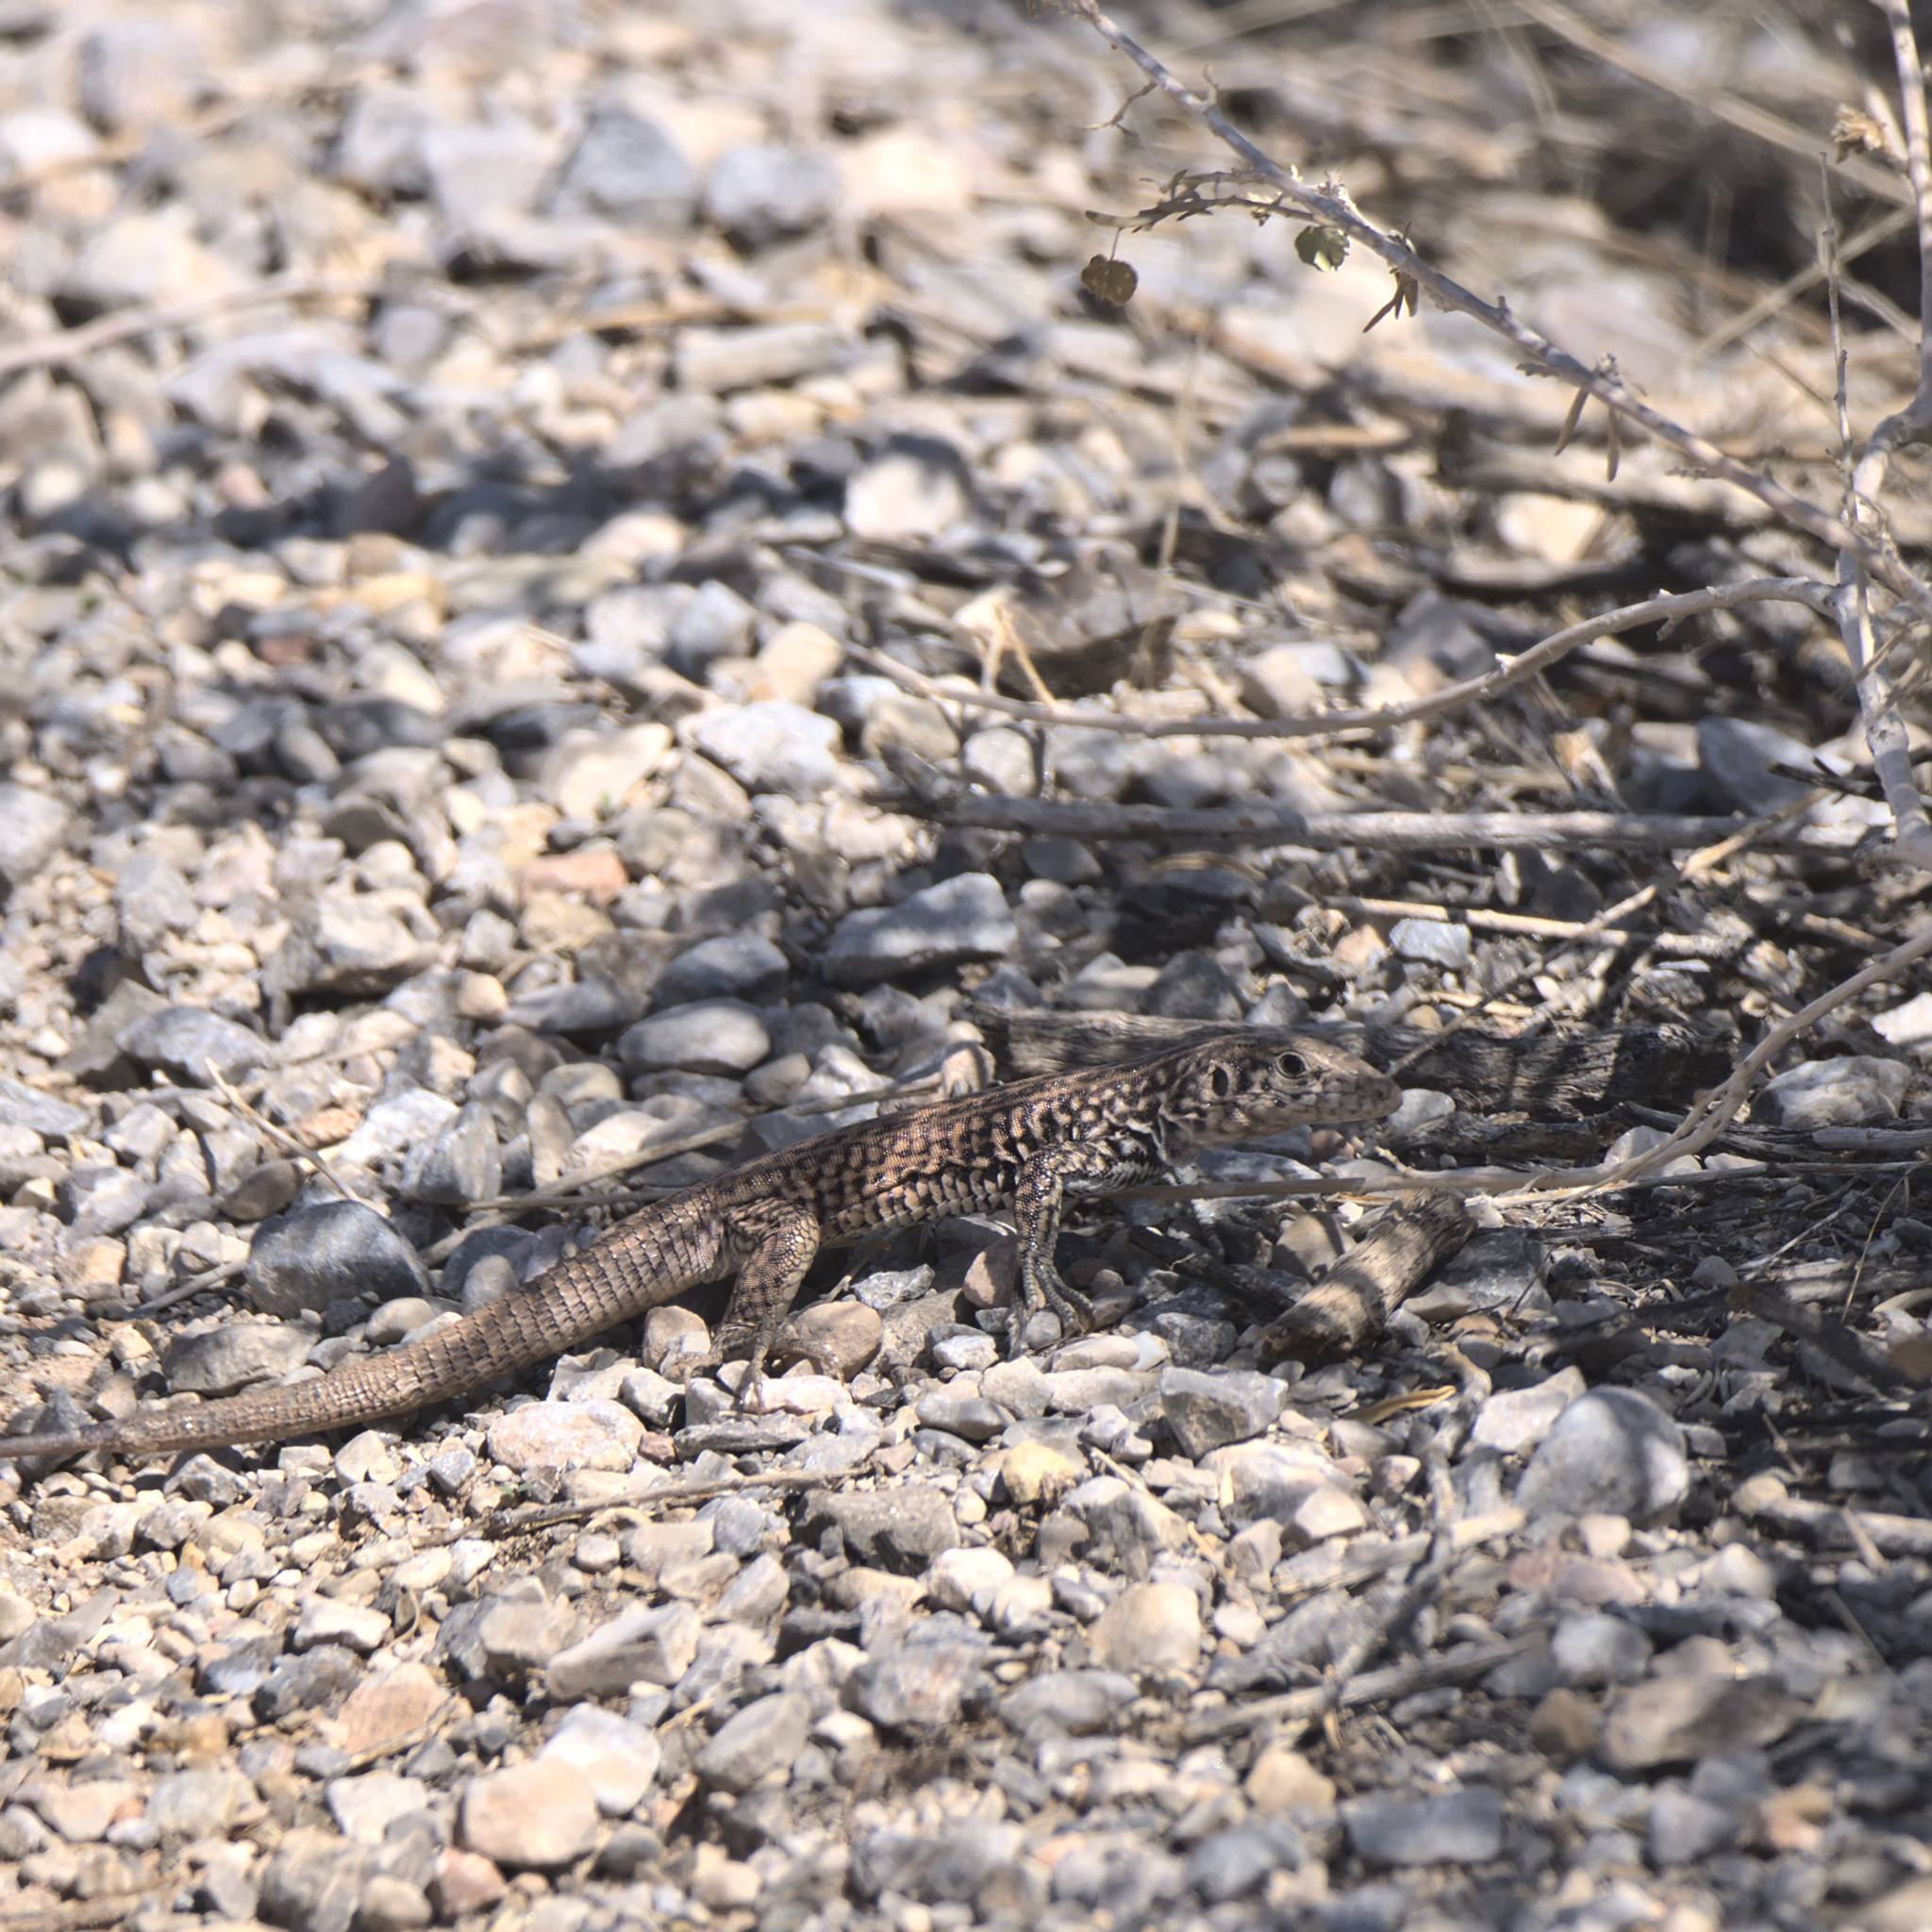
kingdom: Animalia
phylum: Chordata
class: Squamata
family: Teiidae
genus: Aspidoscelis
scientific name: Aspidoscelis tigris
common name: Tiger whiptail
